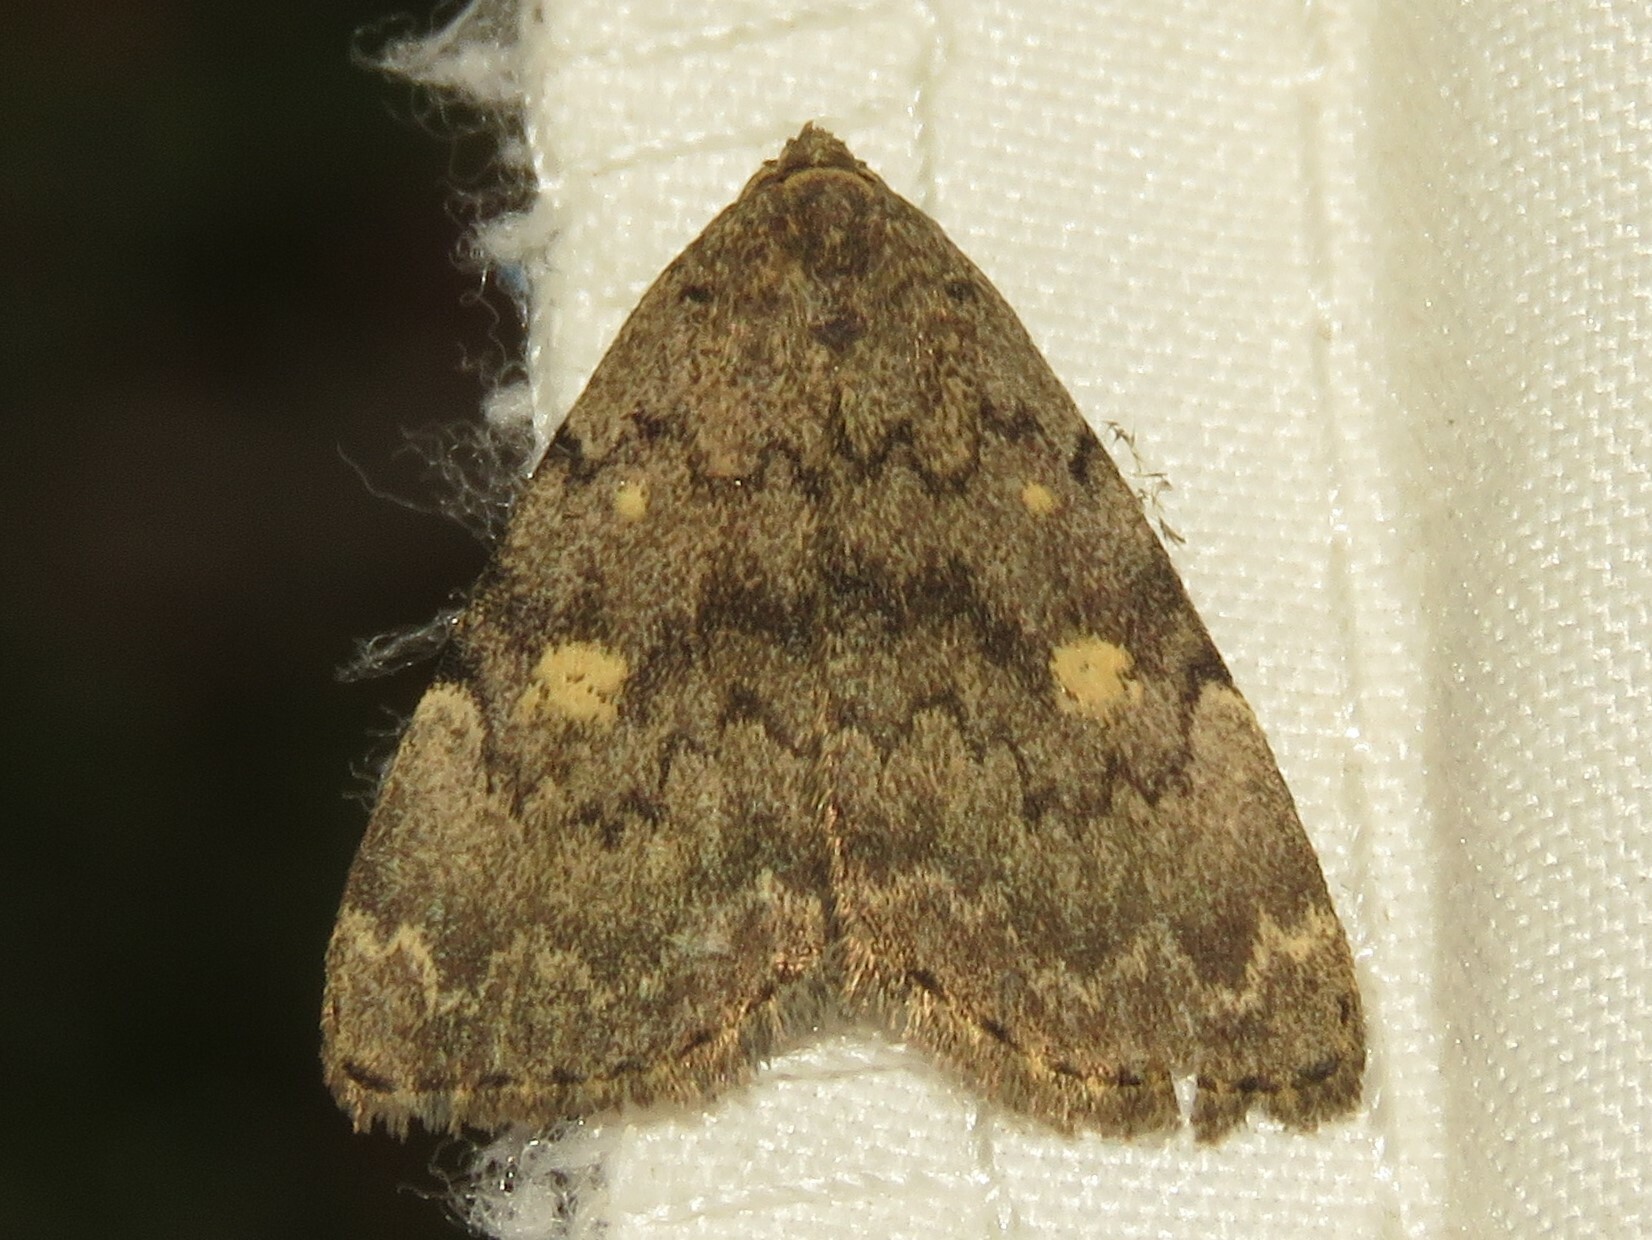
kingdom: Animalia
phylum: Arthropoda
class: Insecta
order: Lepidoptera
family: Erebidae
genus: Idia
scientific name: Idia aemula
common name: Common idia moth
